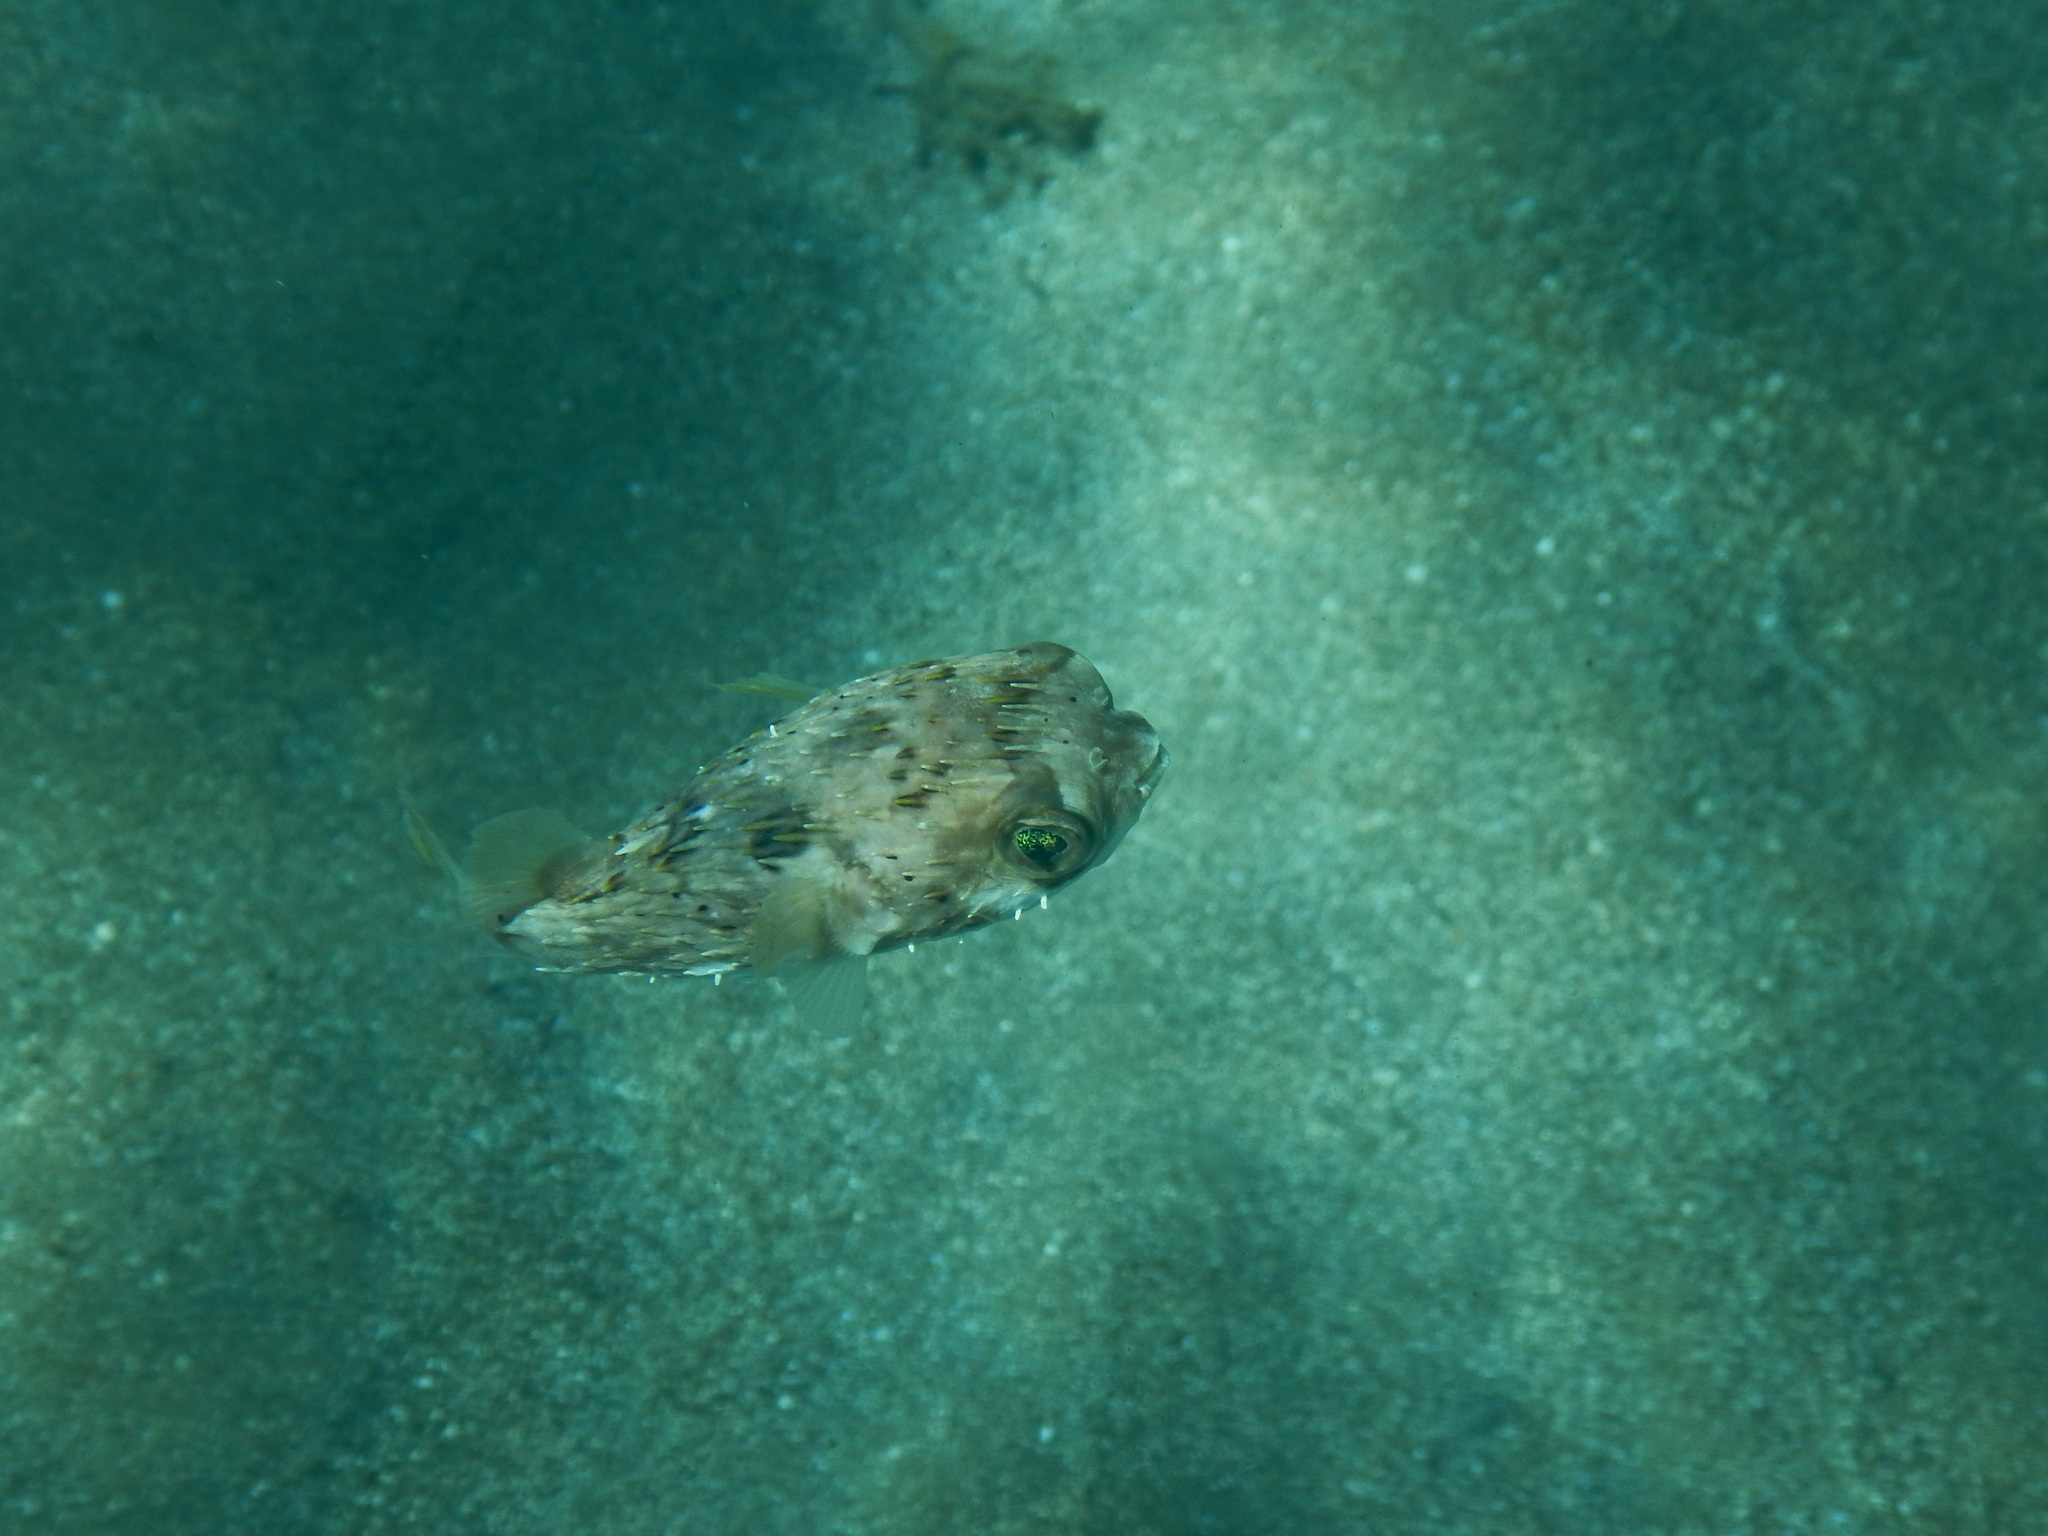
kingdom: Animalia
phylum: Chordata
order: Tetraodontiformes
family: Diodontidae
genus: Diodon
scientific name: Diodon holocanthus
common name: Balloonfish
